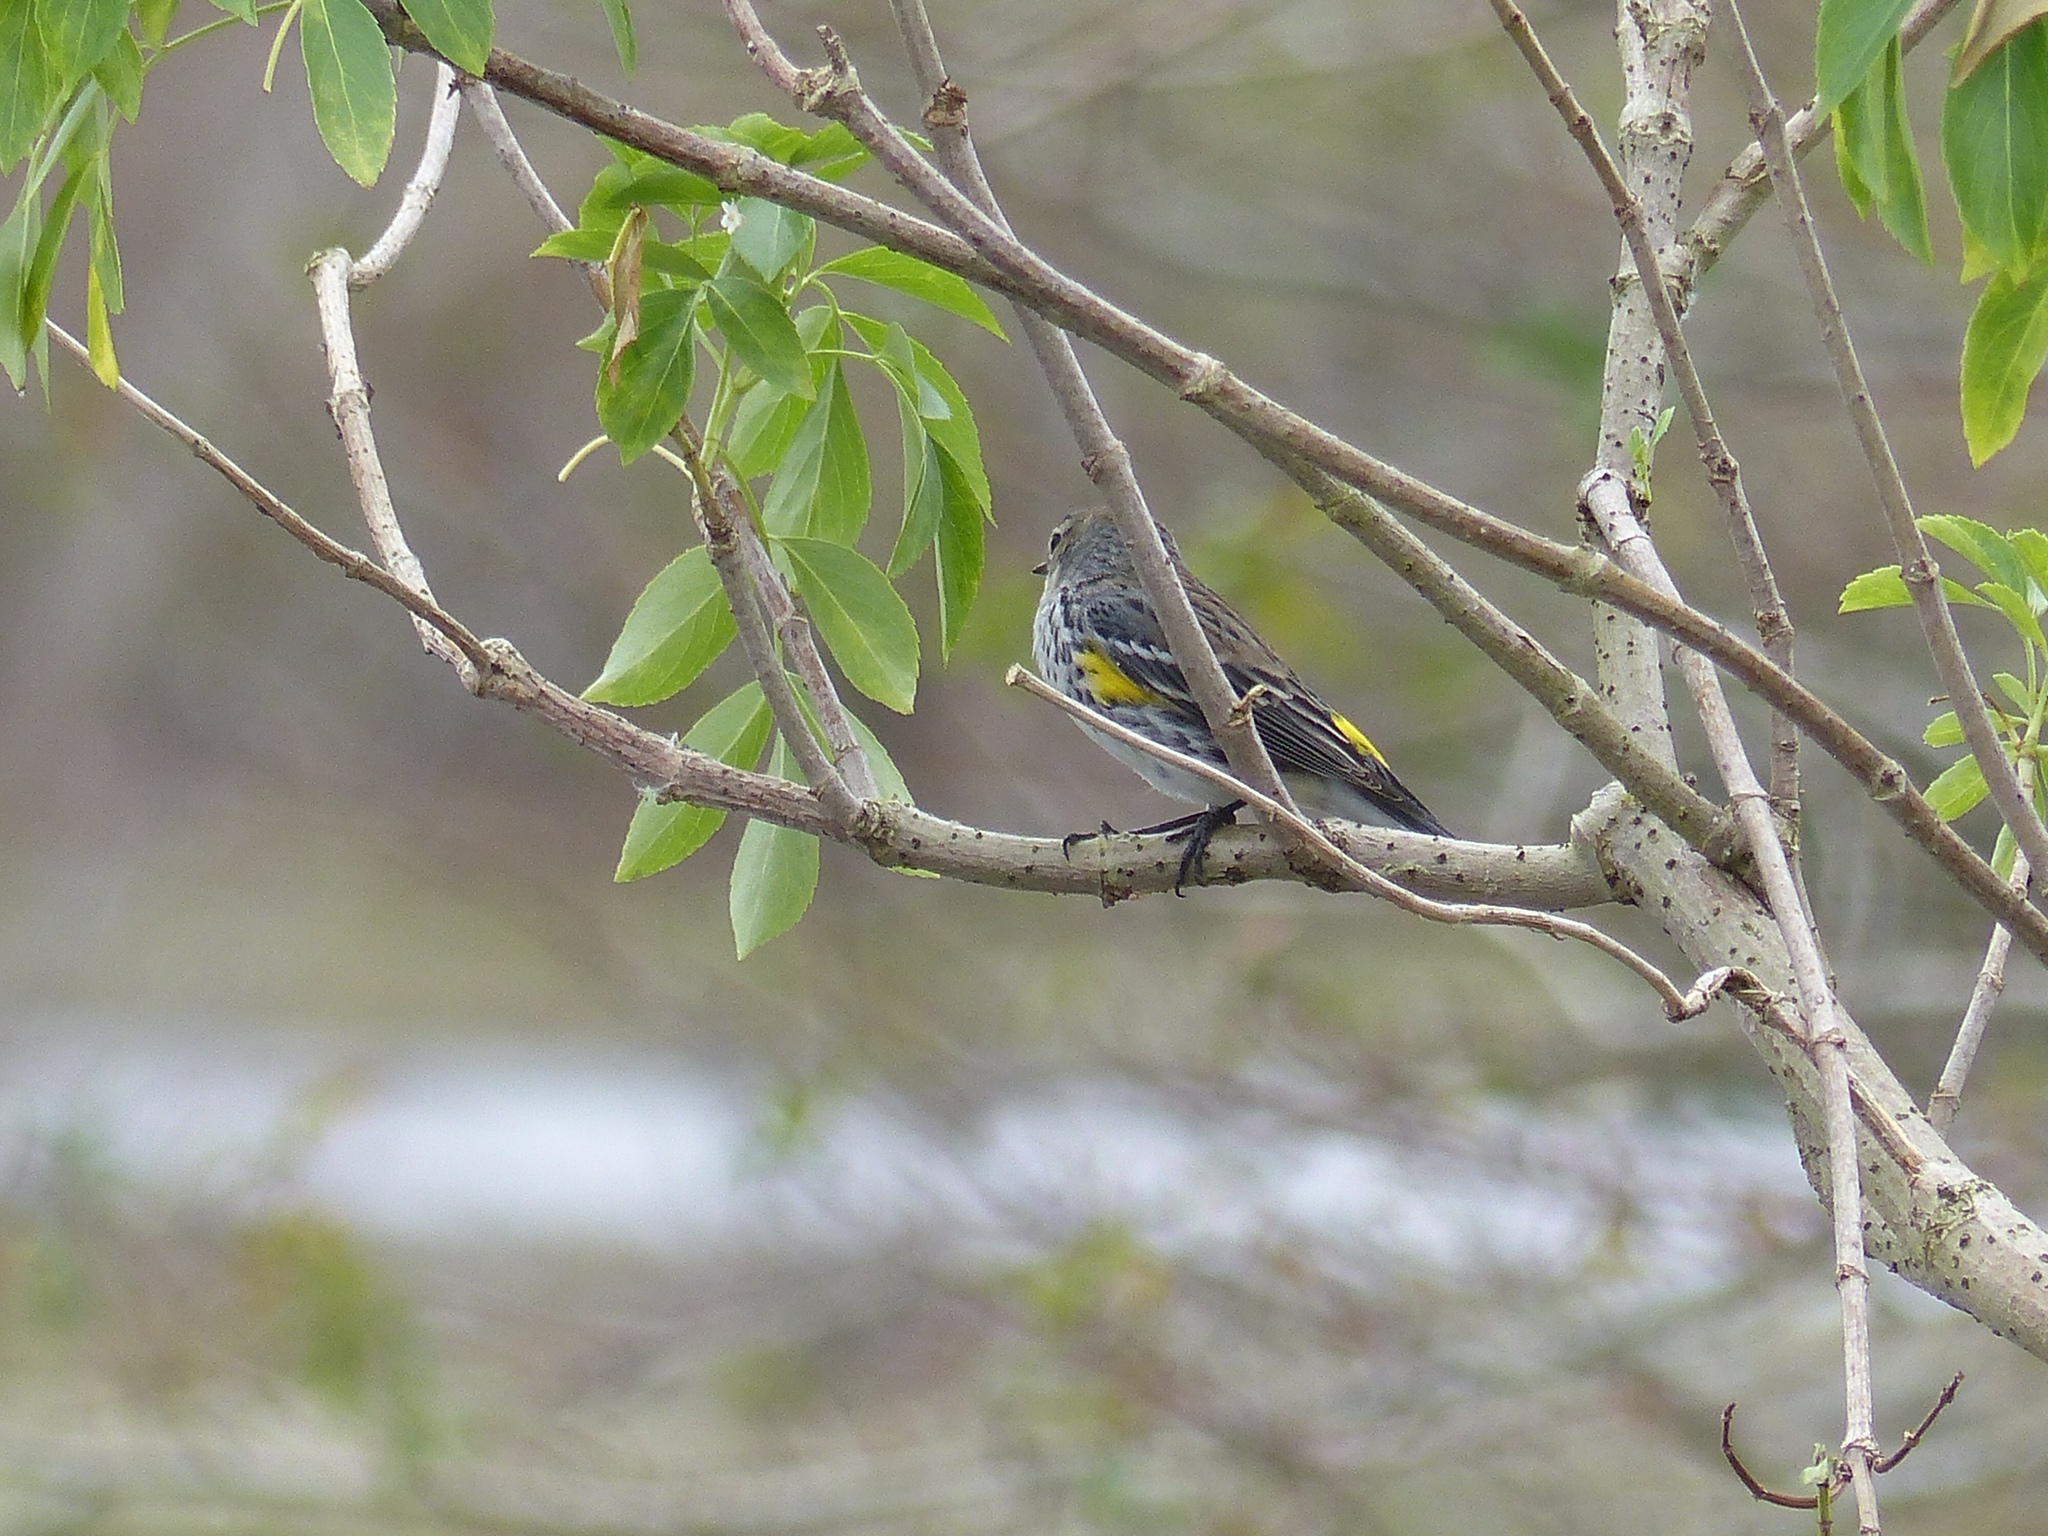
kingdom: Animalia
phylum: Chordata
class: Aves
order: Passeriformes
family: Parulidae
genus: Setophaga
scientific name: Setophaga coronata
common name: Myrtle warbler
